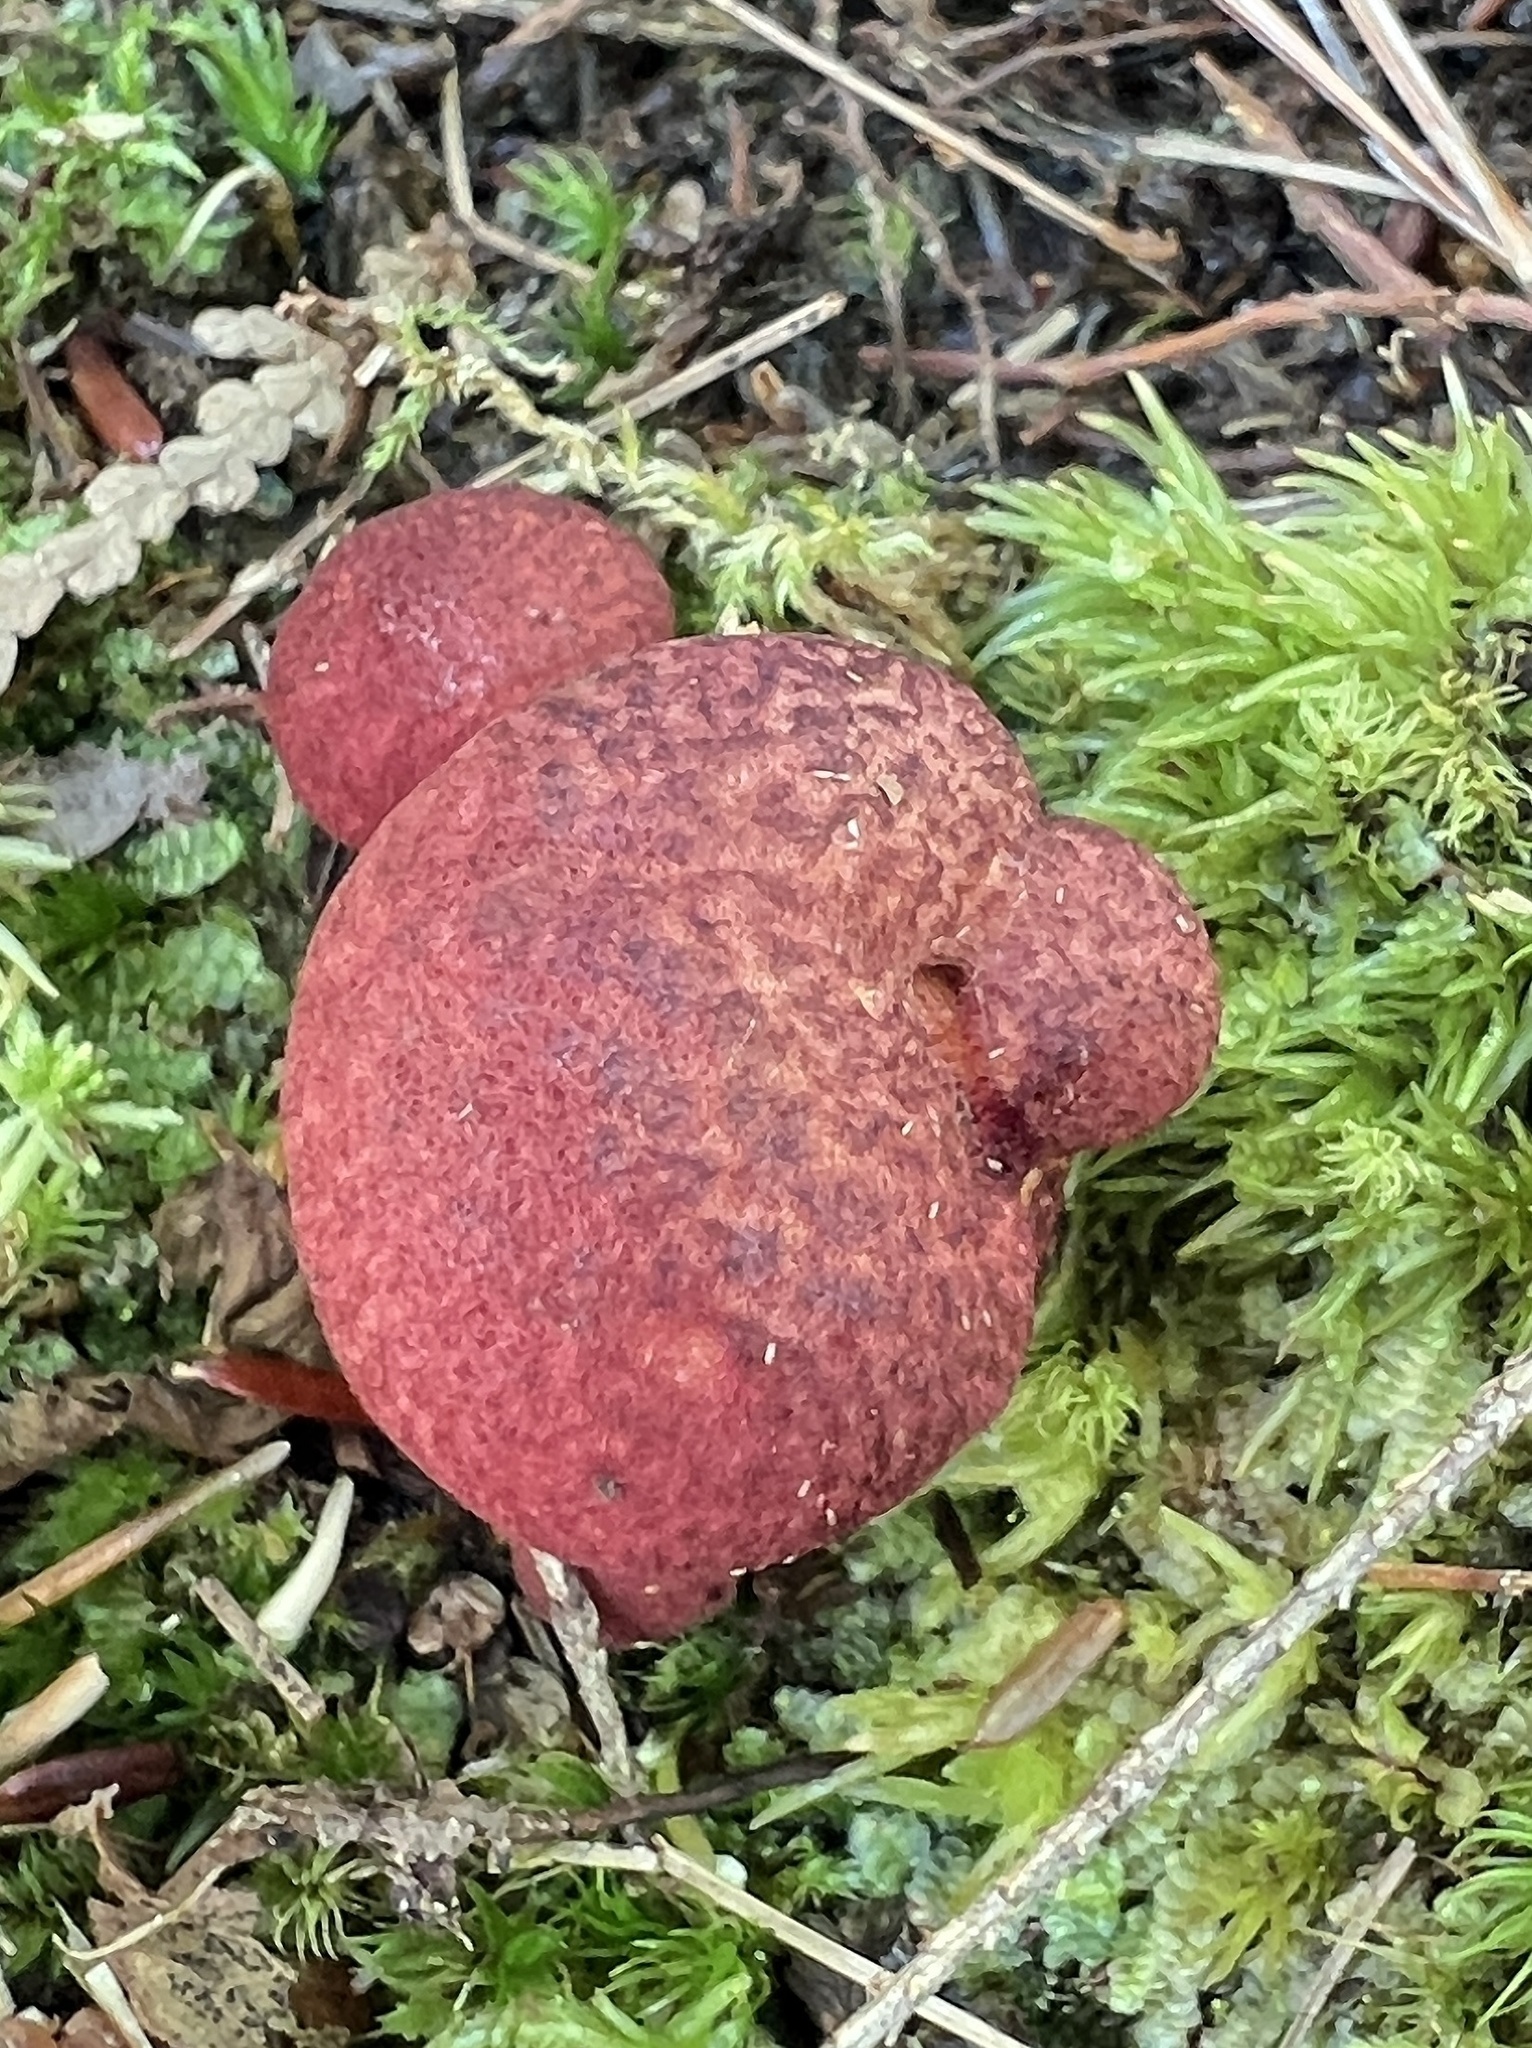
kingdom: Fungi
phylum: Basidiomycota
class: Agaricomycetes
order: Boletales
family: Suillaceae
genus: Suillus
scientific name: Suillus spraguei
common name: Painted suillus
